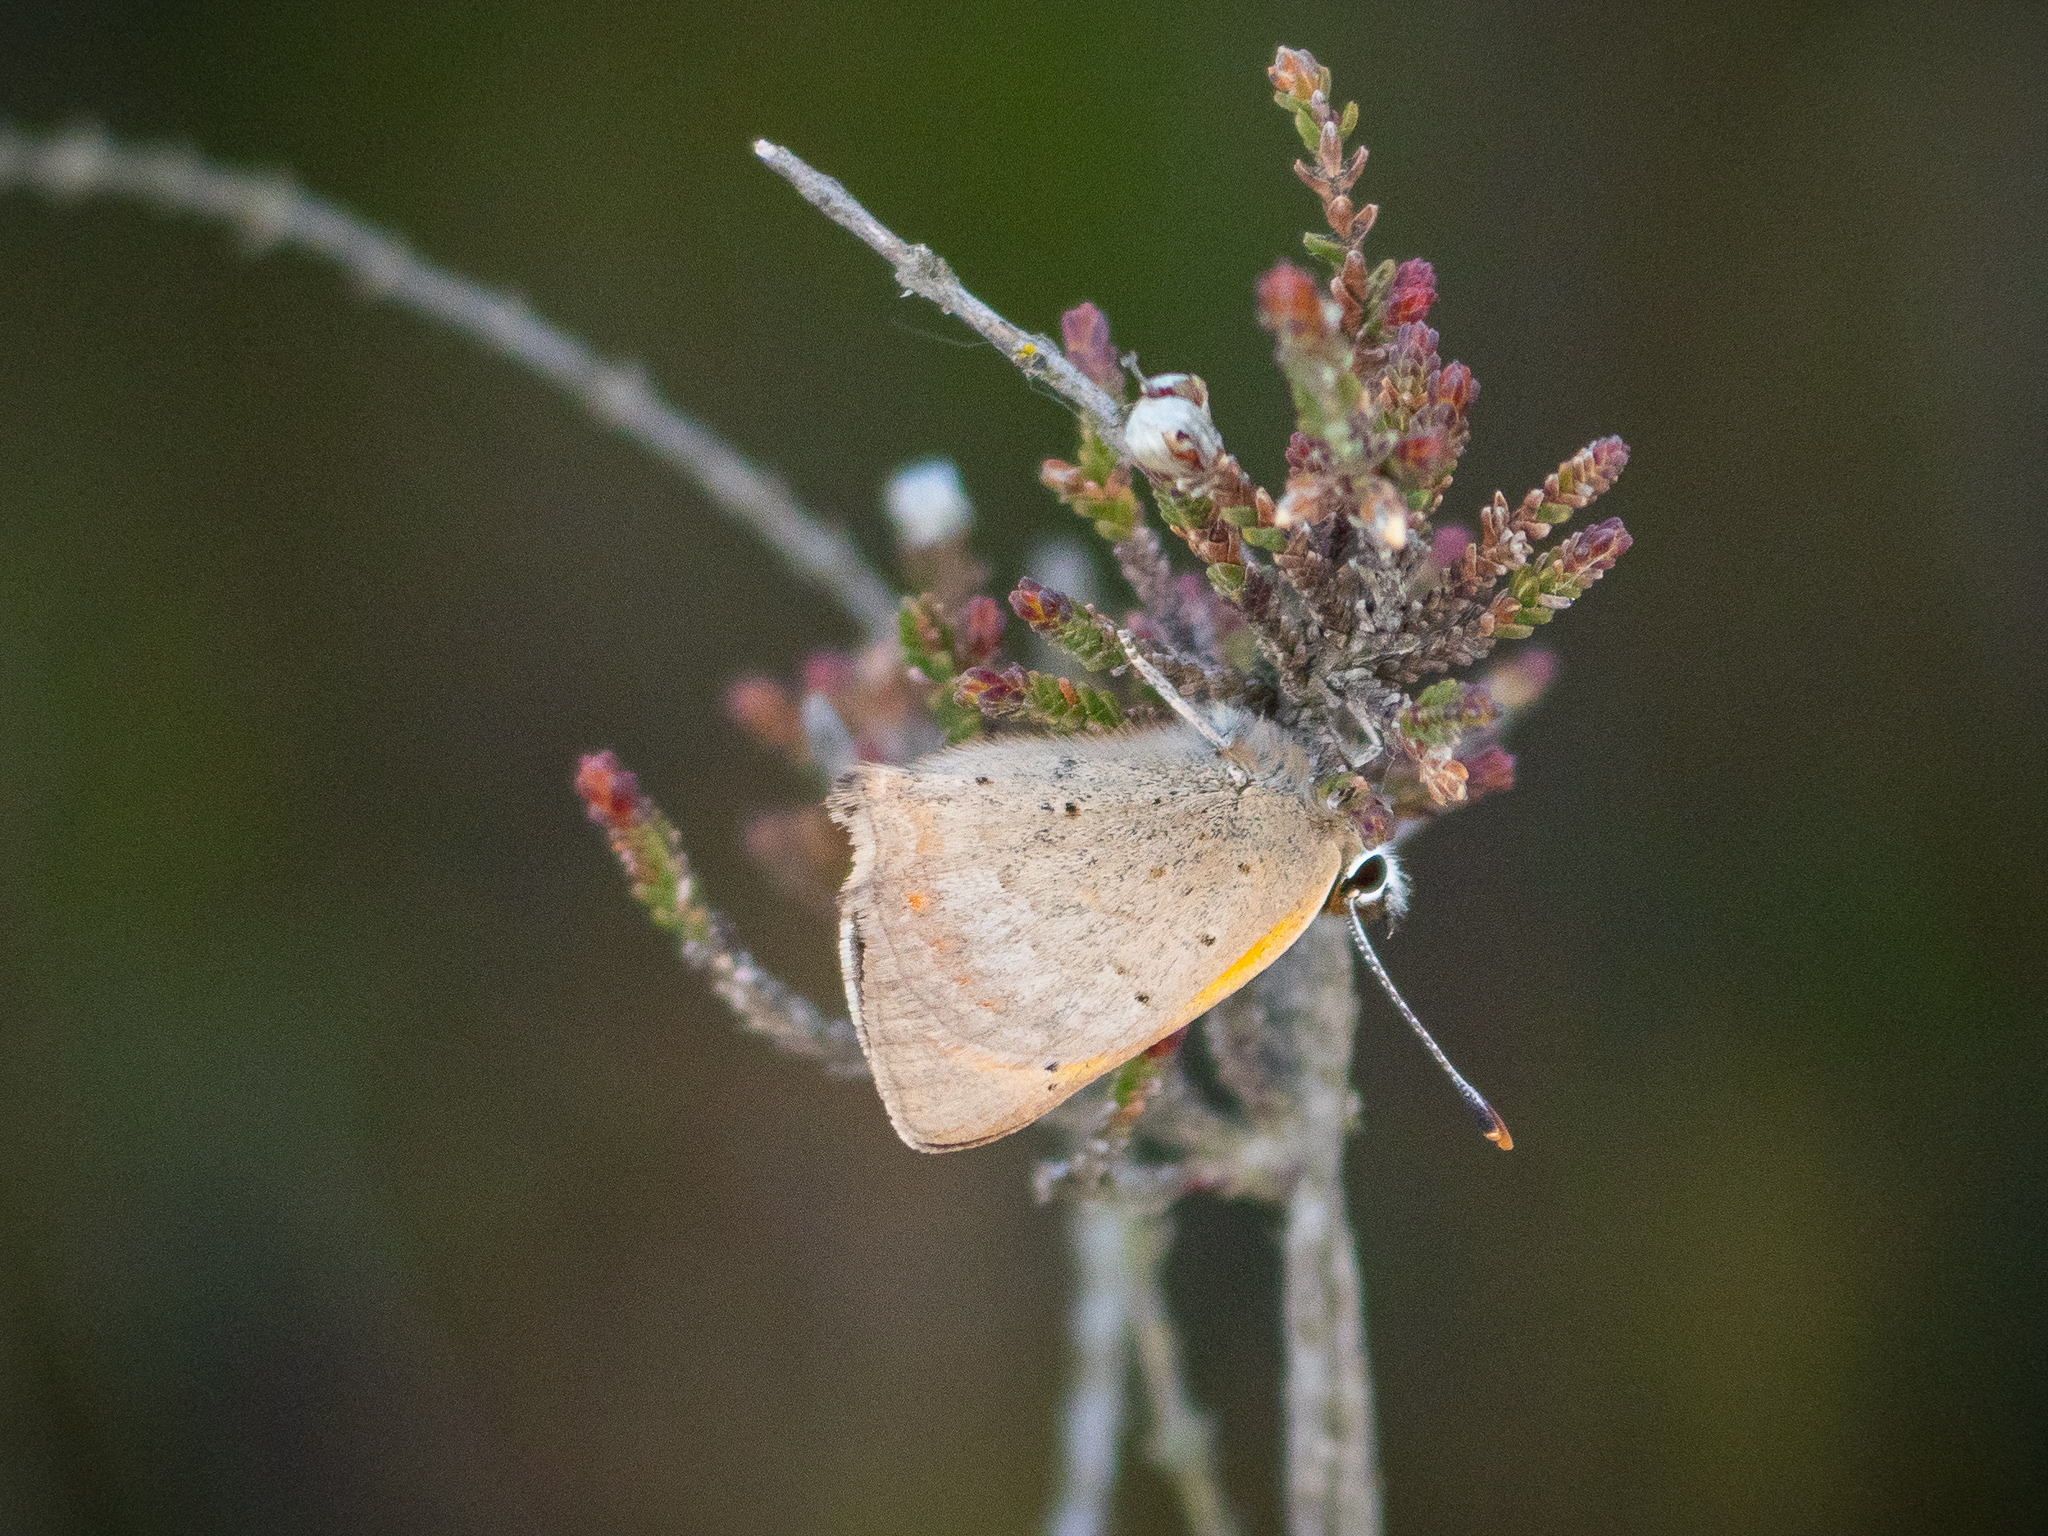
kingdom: Animalia
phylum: Arthropoda
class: Insecta
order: Lepidoptera
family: Lycaenidae
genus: Lycaena
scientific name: Lycaena phlaeas
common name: Small copper
